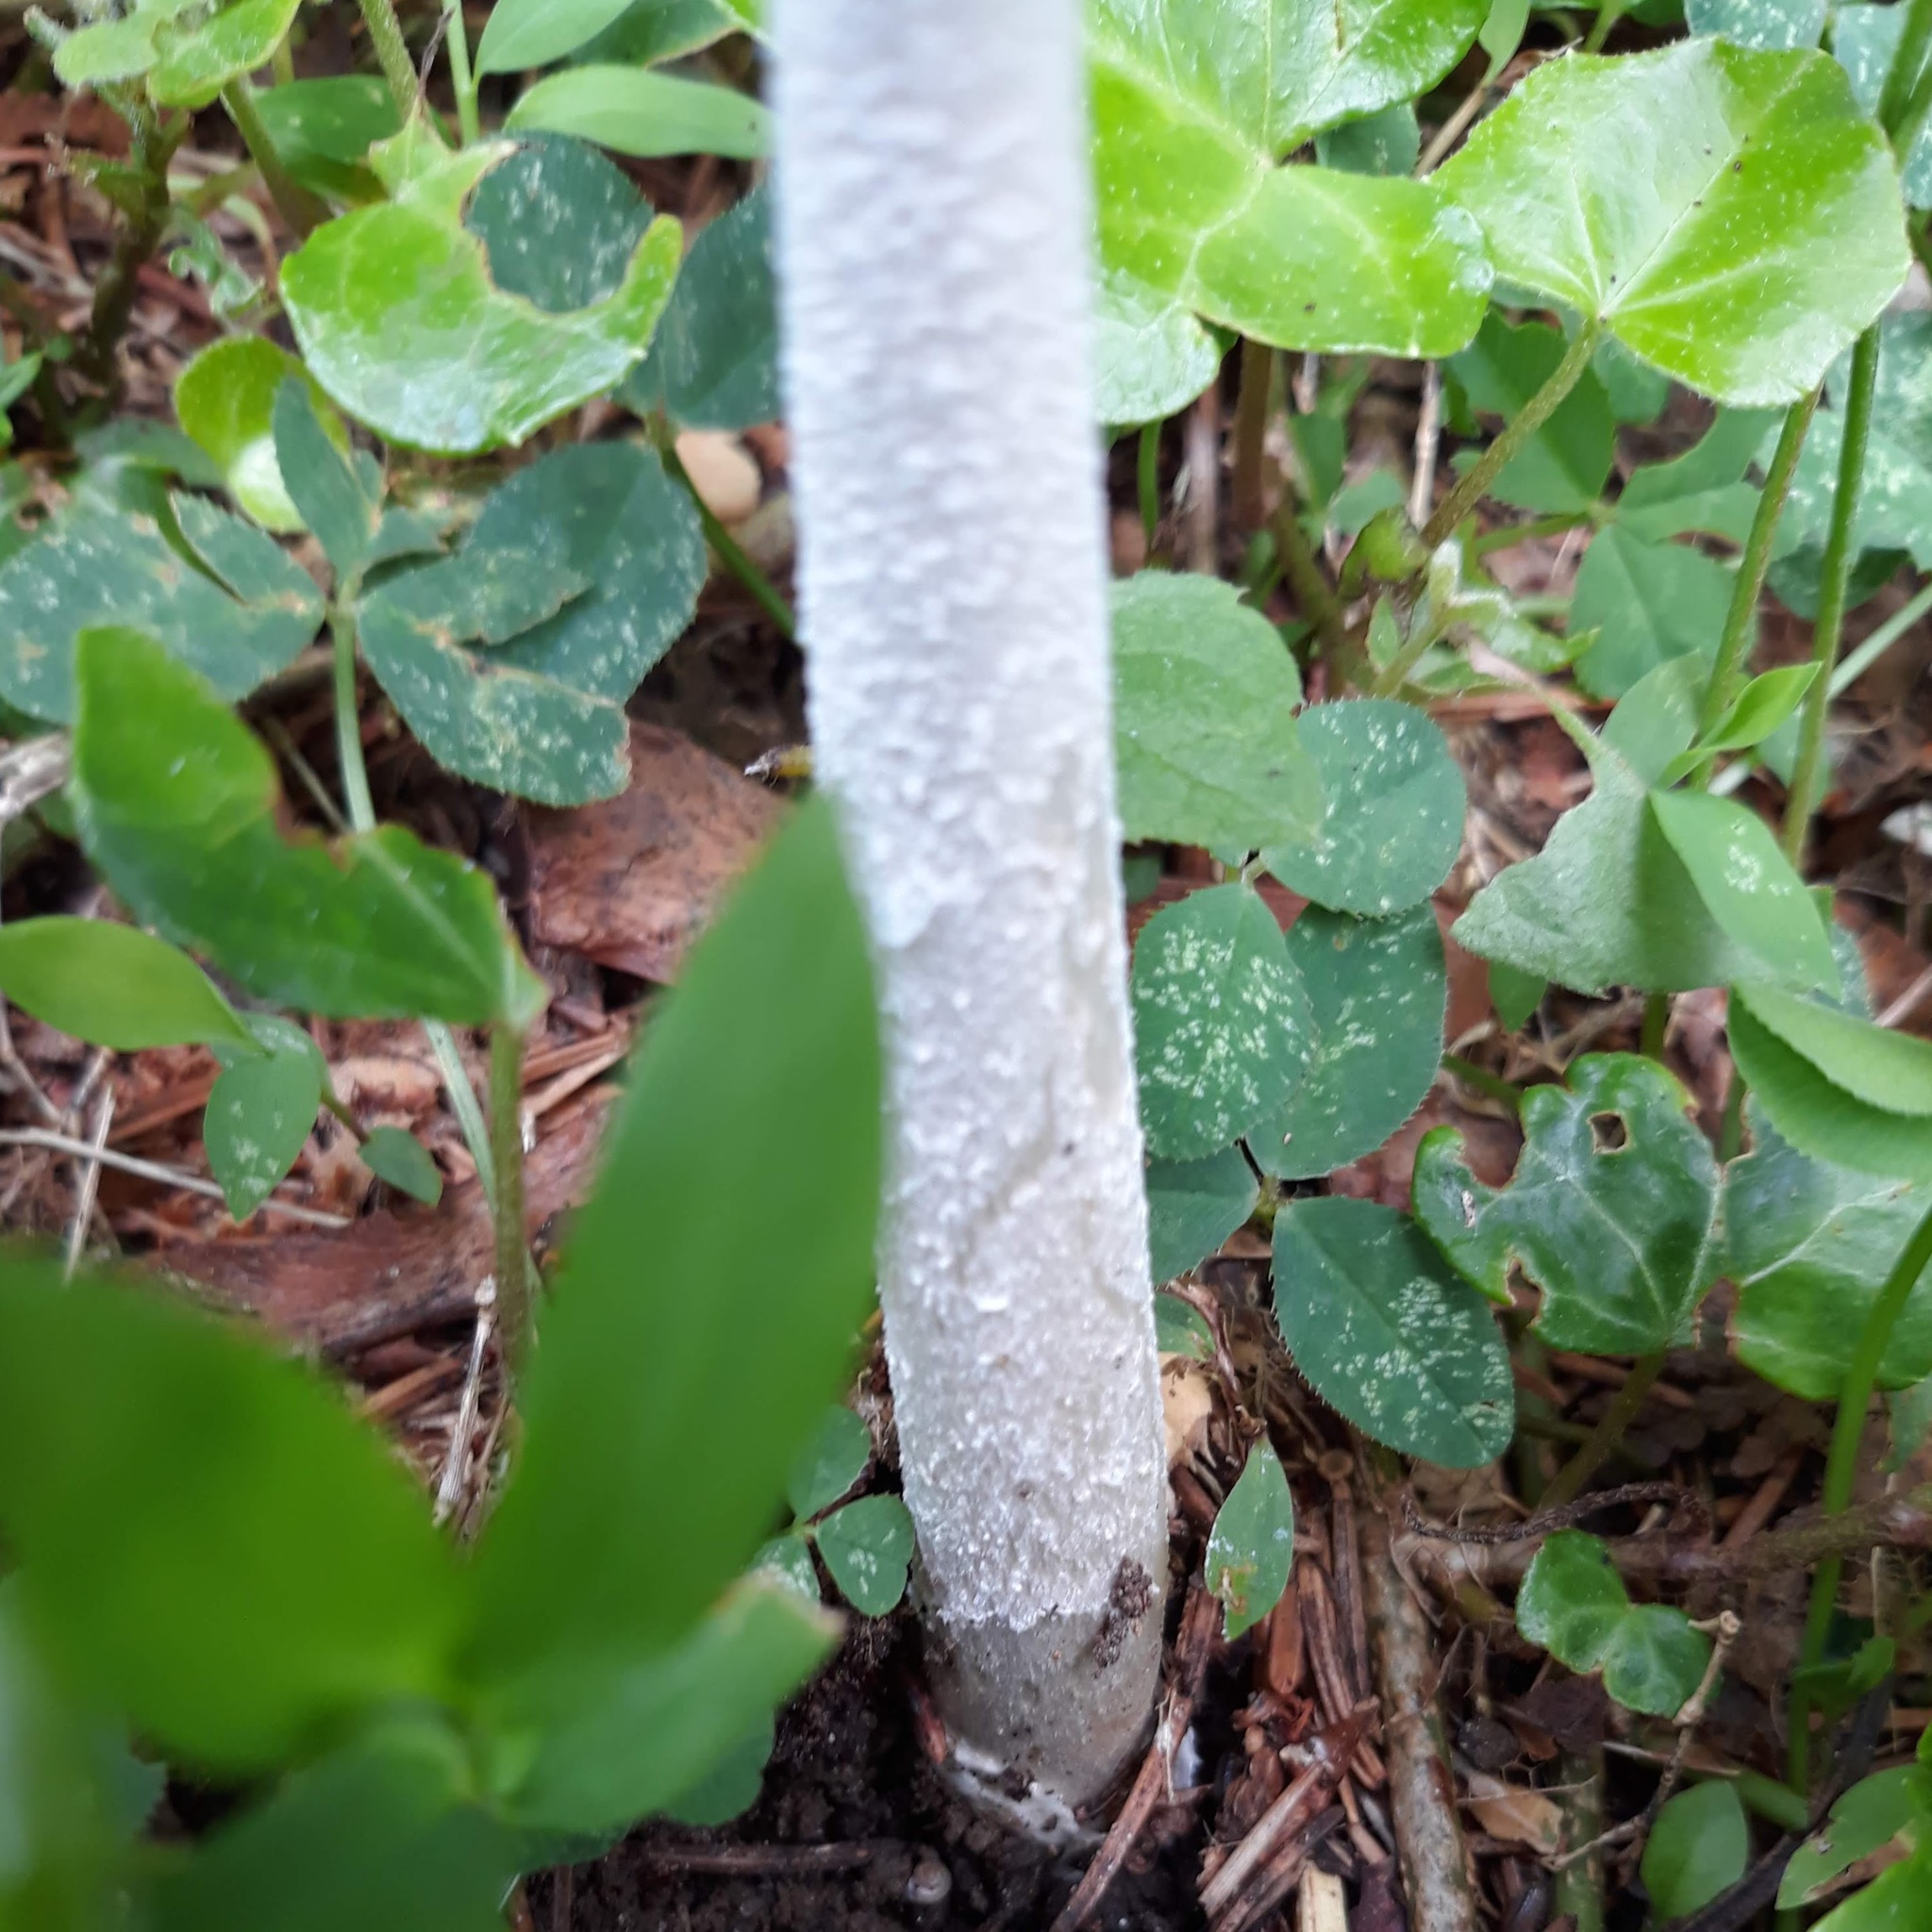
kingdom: Fungi
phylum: Basidiomycota
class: Agaricomycetes
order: Agaricales
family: Amanitaceae
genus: Amanita
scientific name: Amanita
